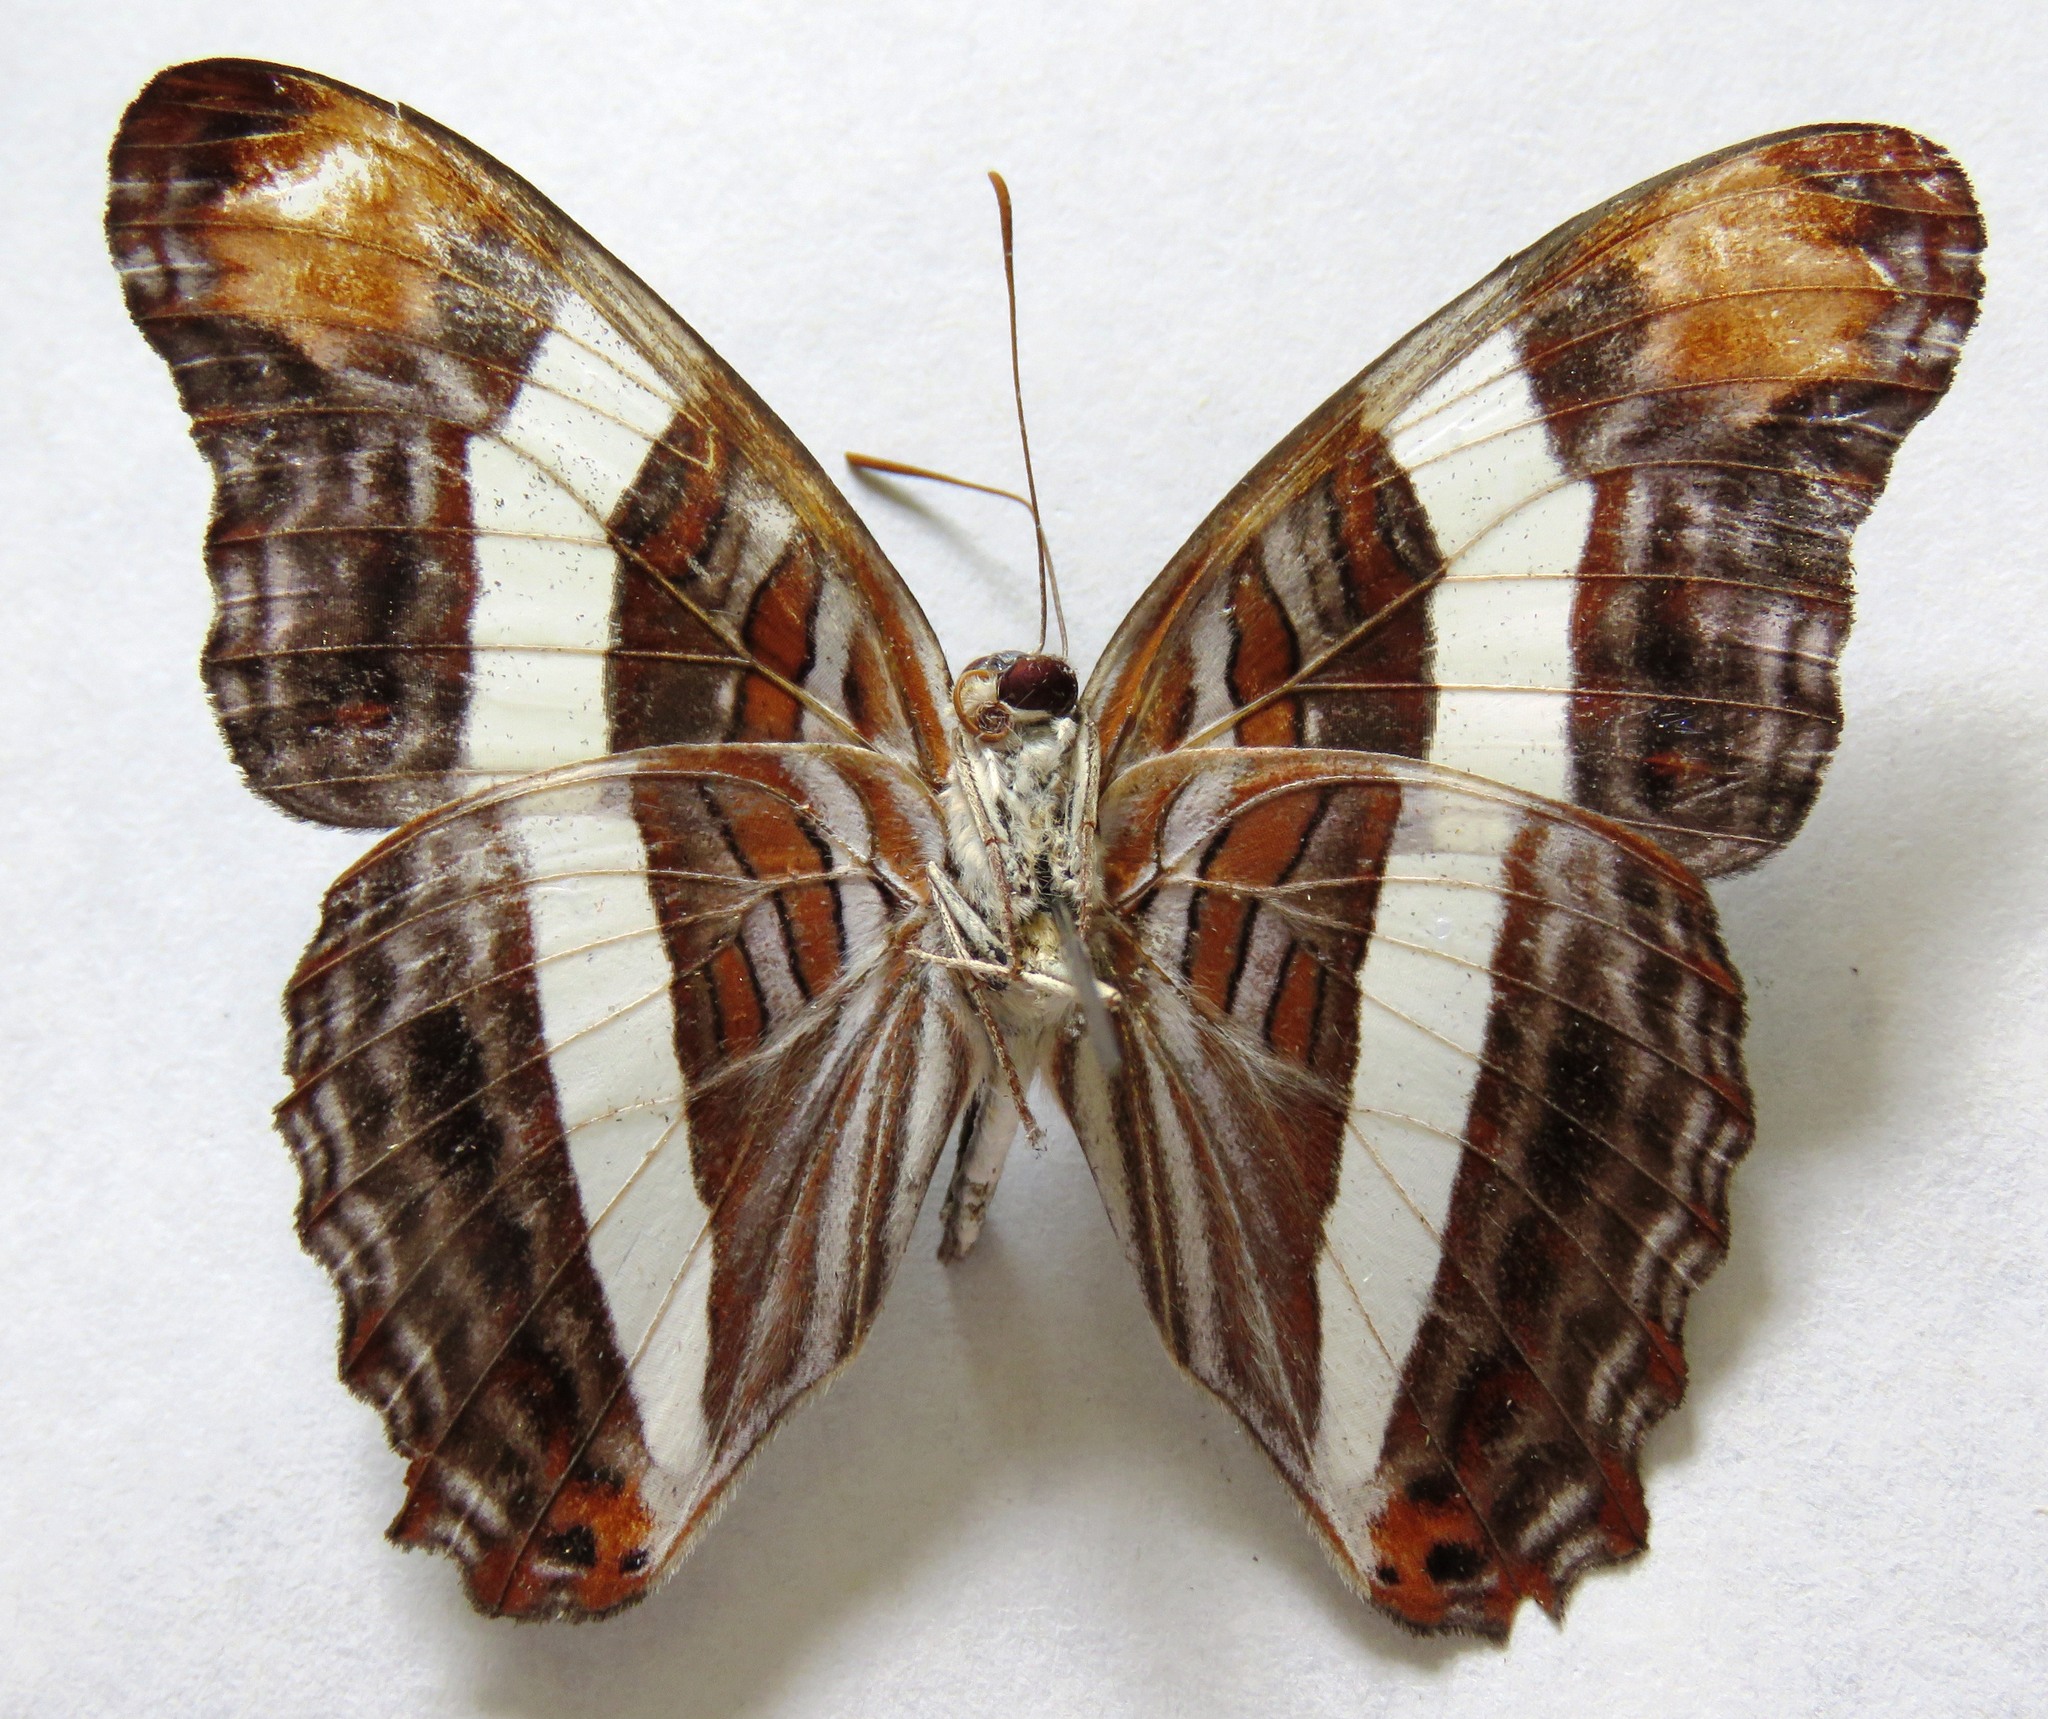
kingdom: Animalia
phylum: Arthropoda
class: Insecta
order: Lepidoptera
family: Nymphalidae
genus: Limenitis
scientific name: Limenitis fessonia
